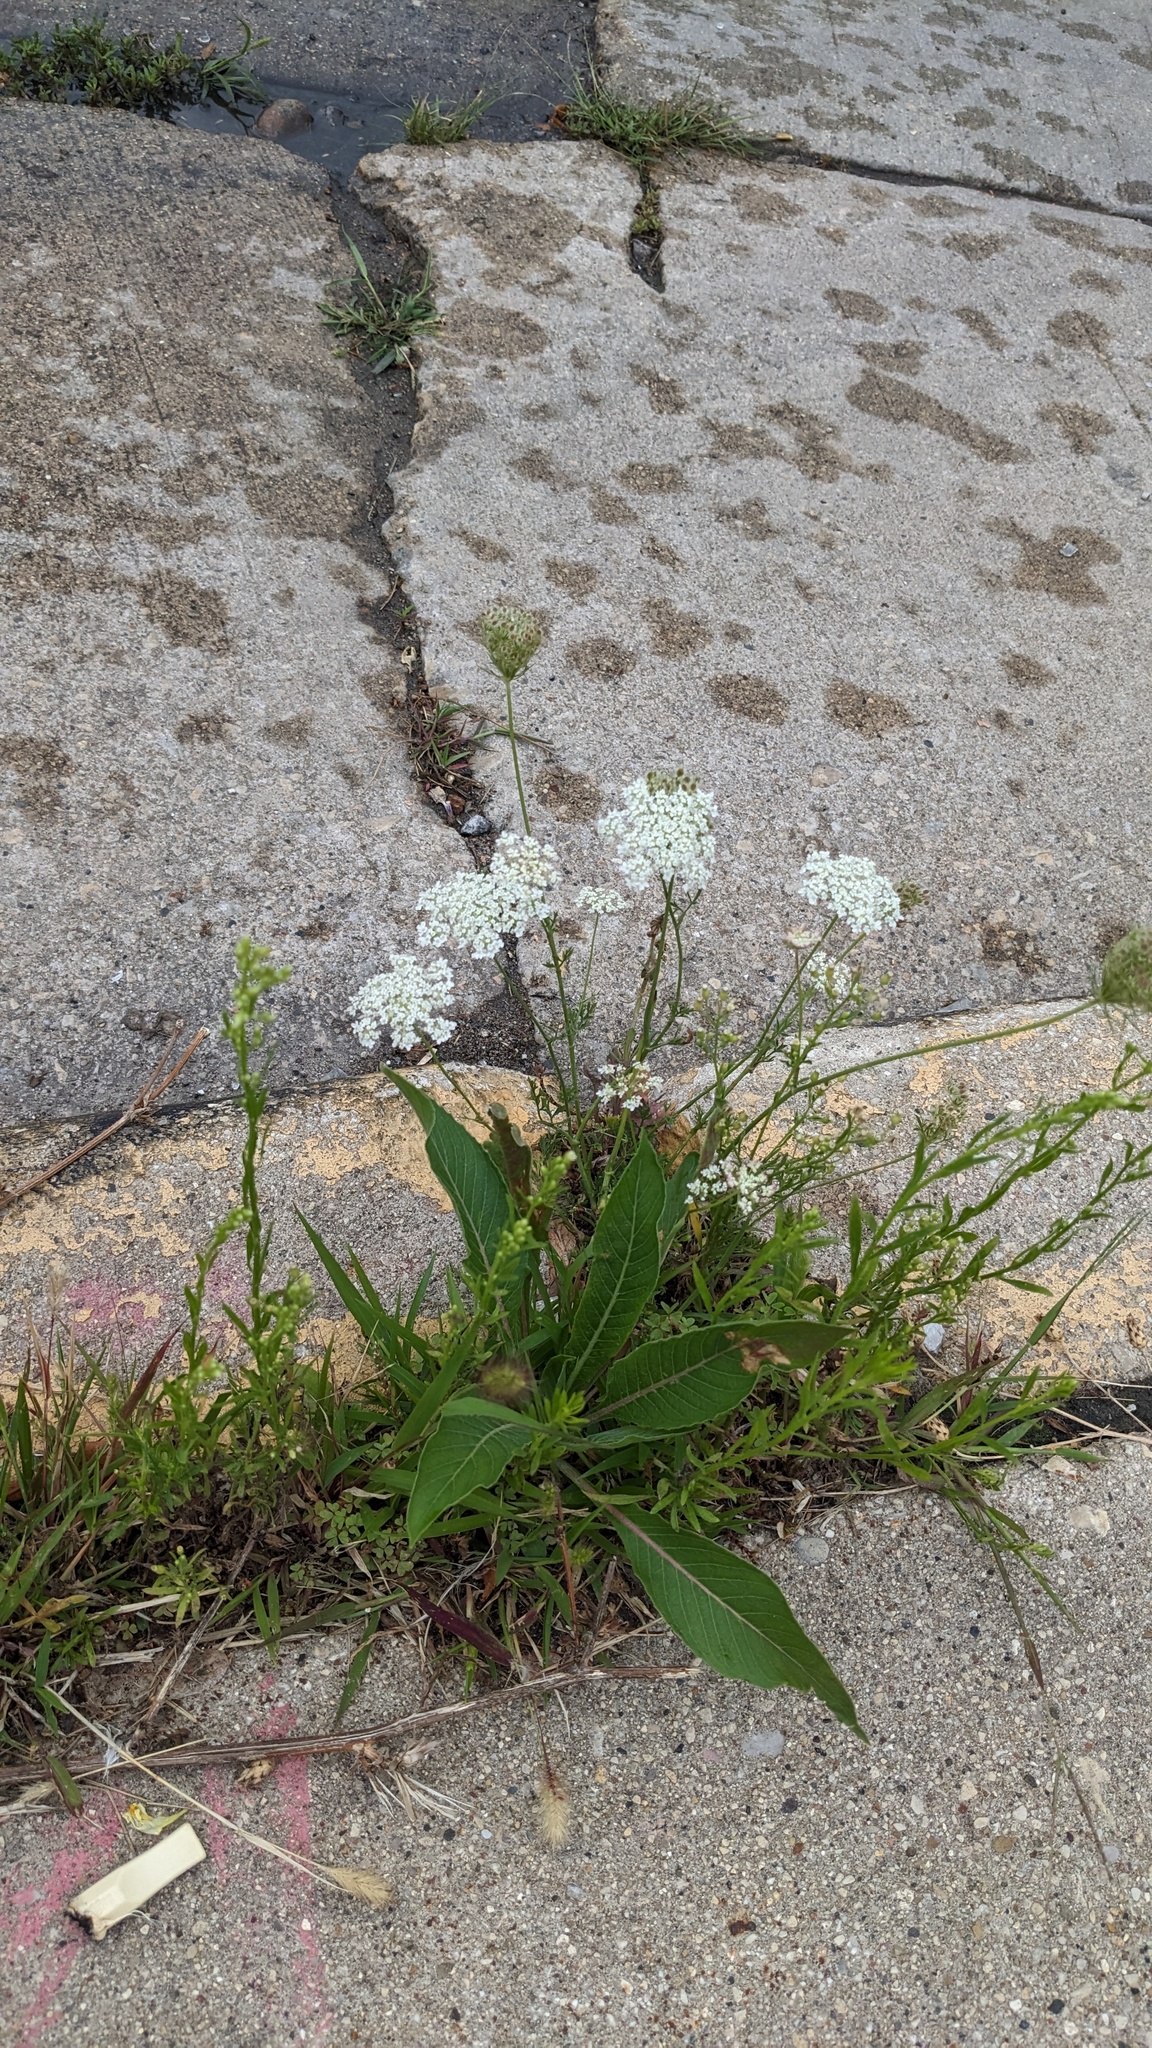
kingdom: Plantae
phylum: Tracheophyta
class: Magnoliopsida
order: Apiales
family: Apiaceae
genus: Daucus
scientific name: Daucus carota
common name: Wild carrot
